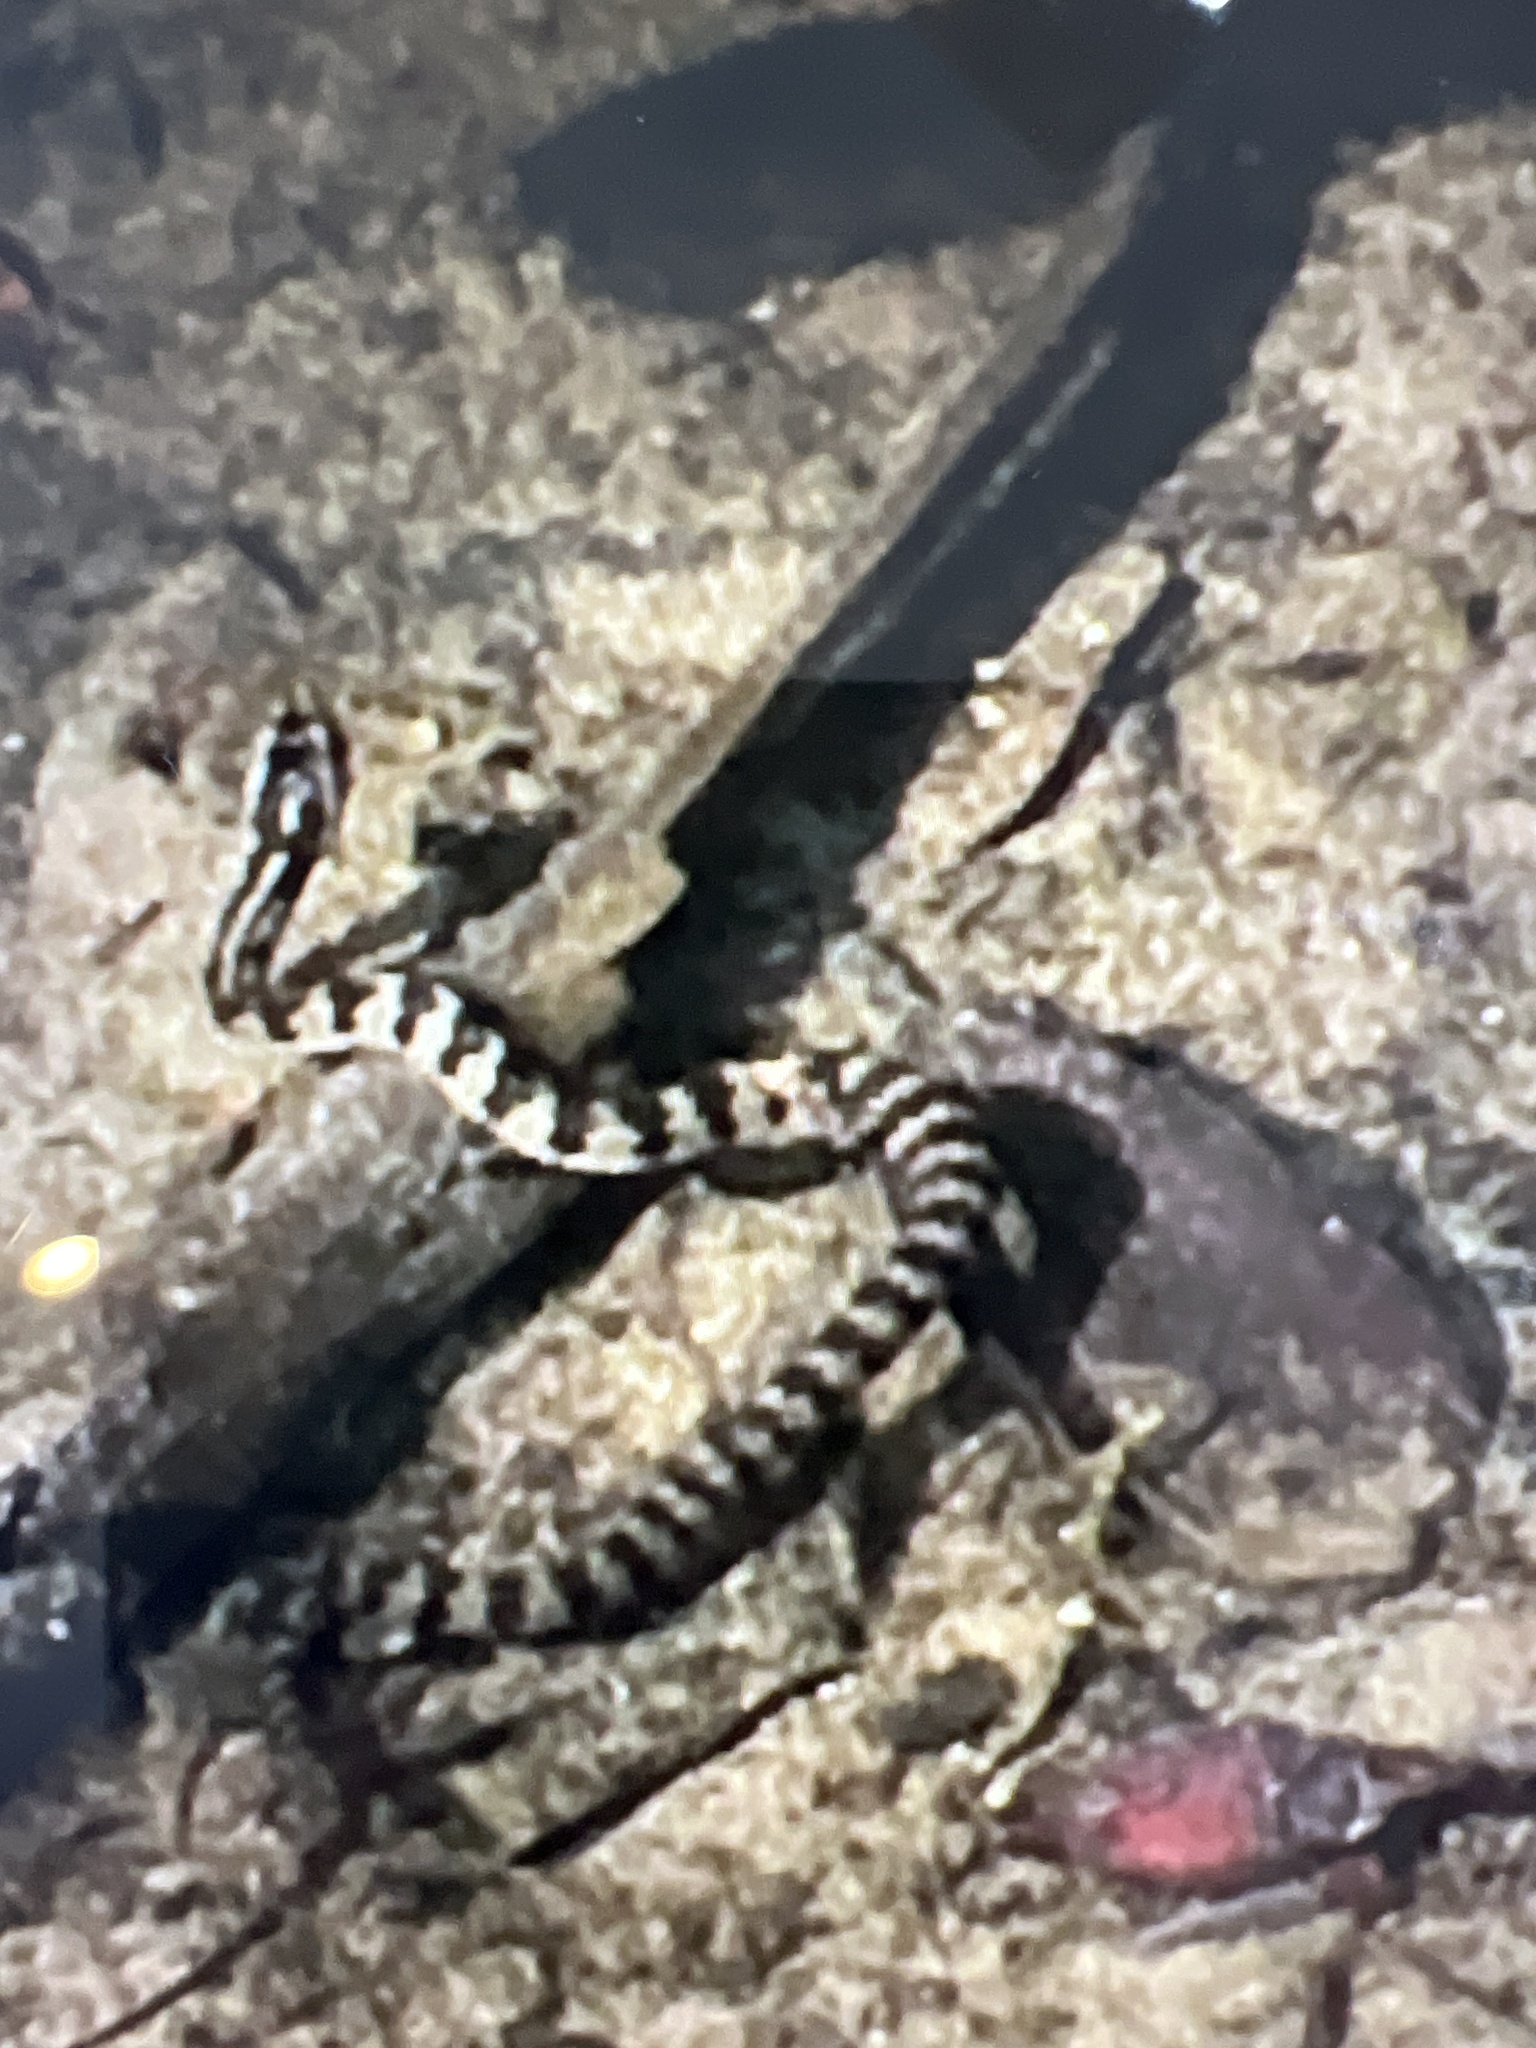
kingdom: Animalia
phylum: Chordata
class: Squamata
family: Colubridae
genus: Nerodia
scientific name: Nerodia clarkii
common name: Atlantic saltmarsh snake
